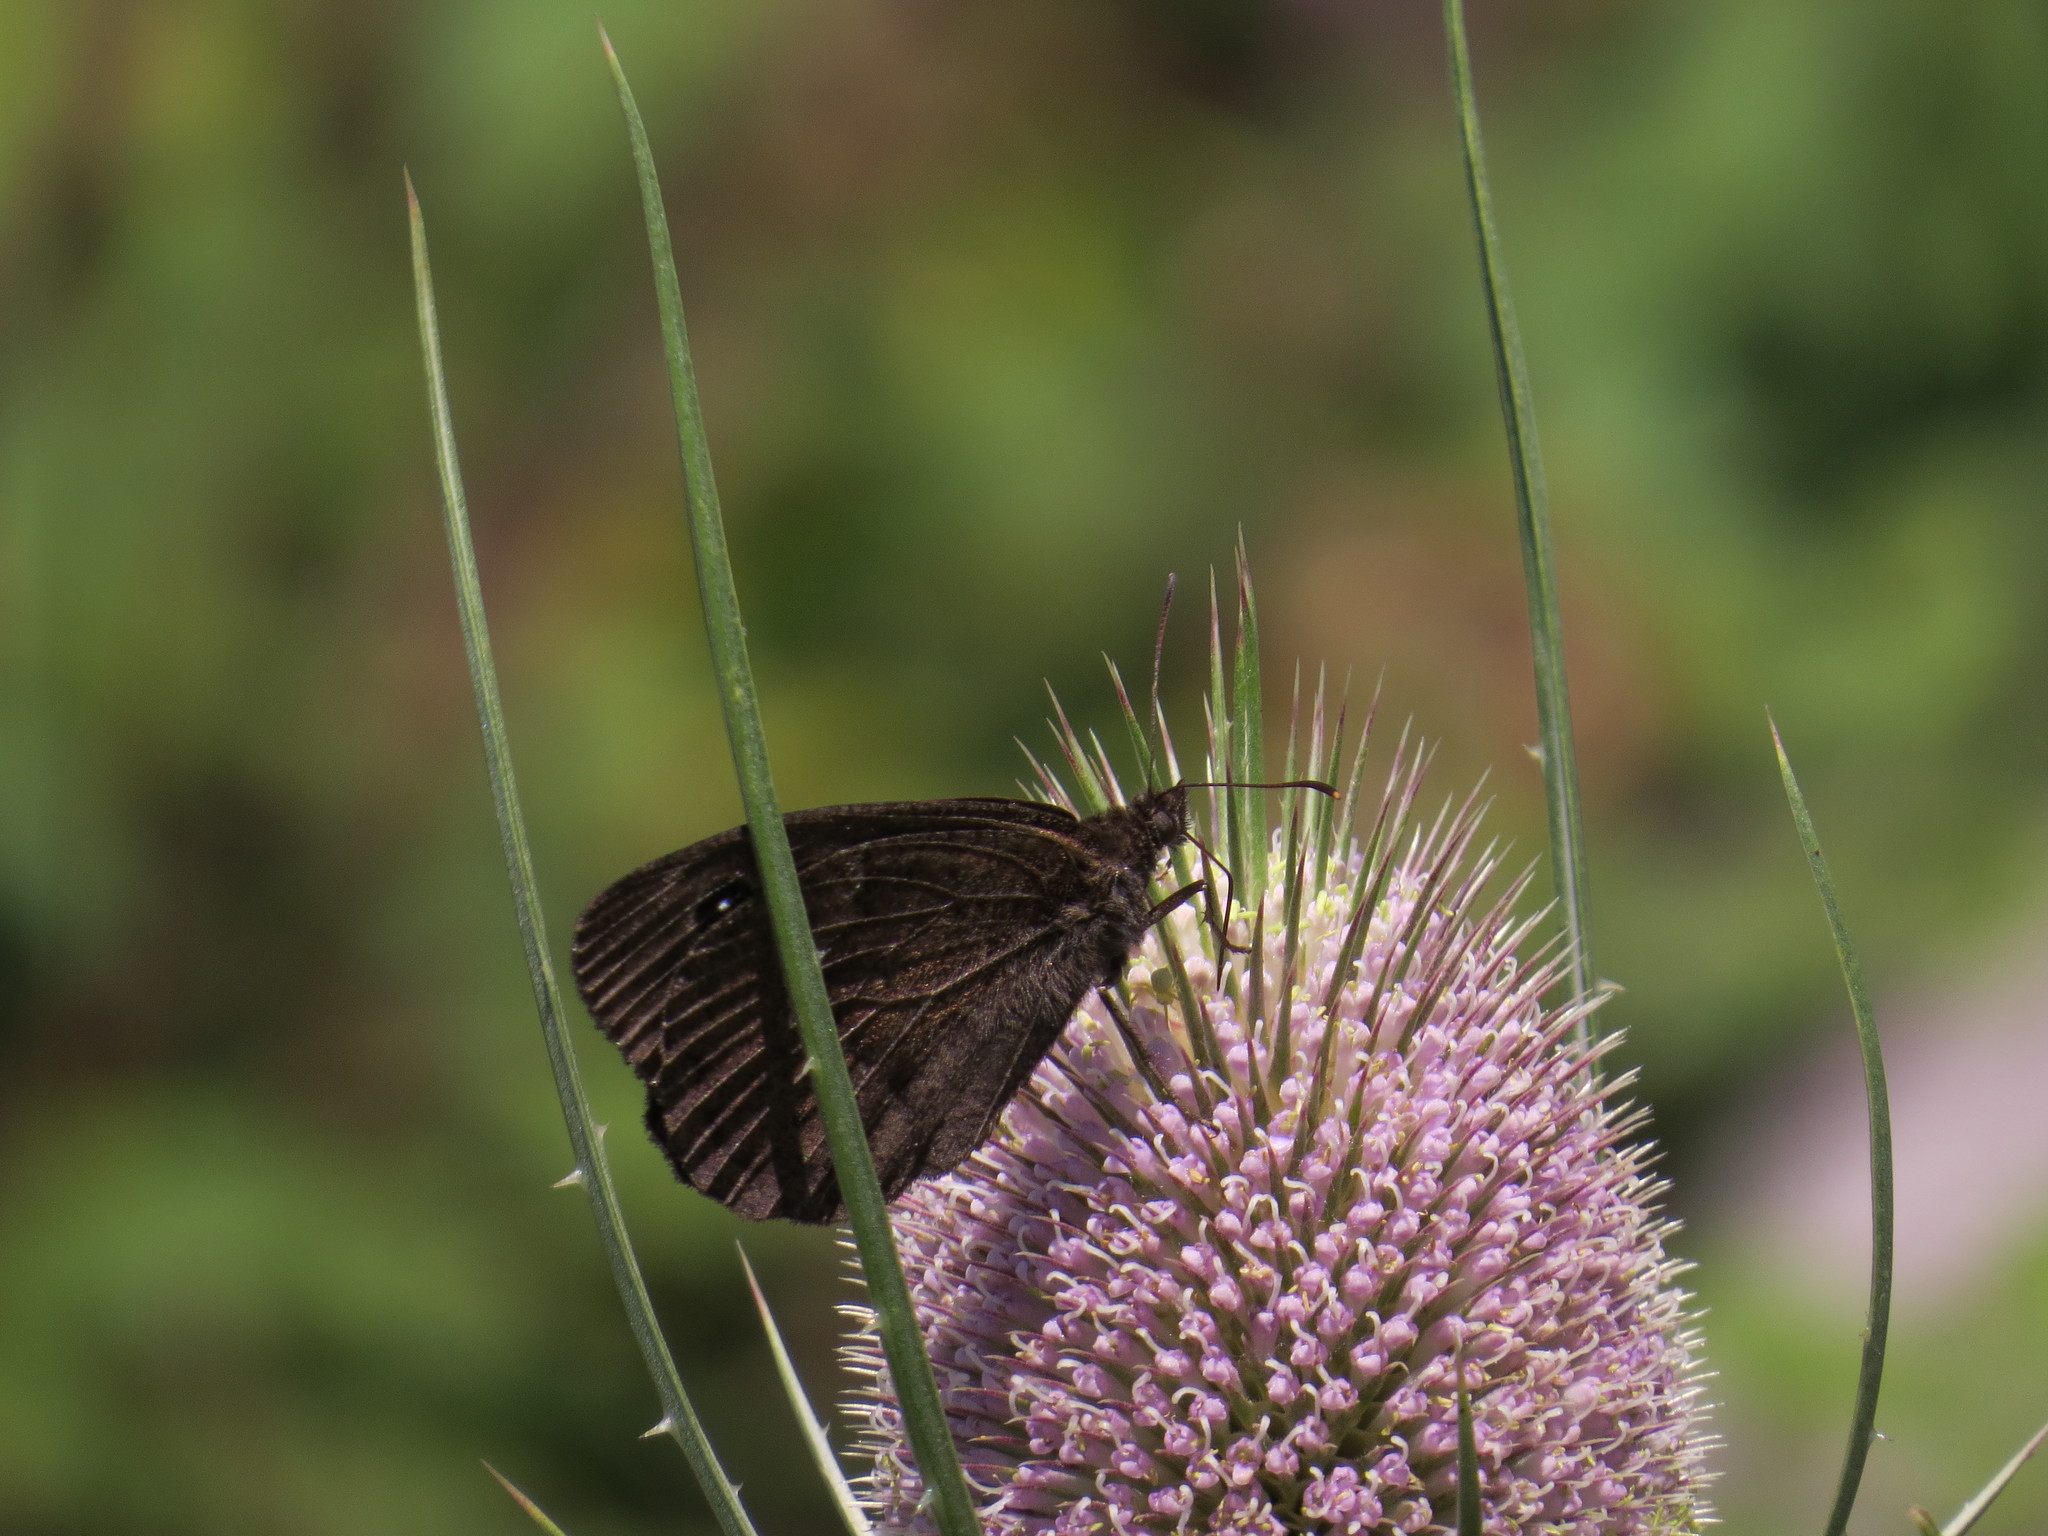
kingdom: Animalia
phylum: Arthropoda
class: Insecta
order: Lepidoptera
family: Nymphalidae
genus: Satyrus
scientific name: Satyrus ferula
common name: Great sooty satyr
